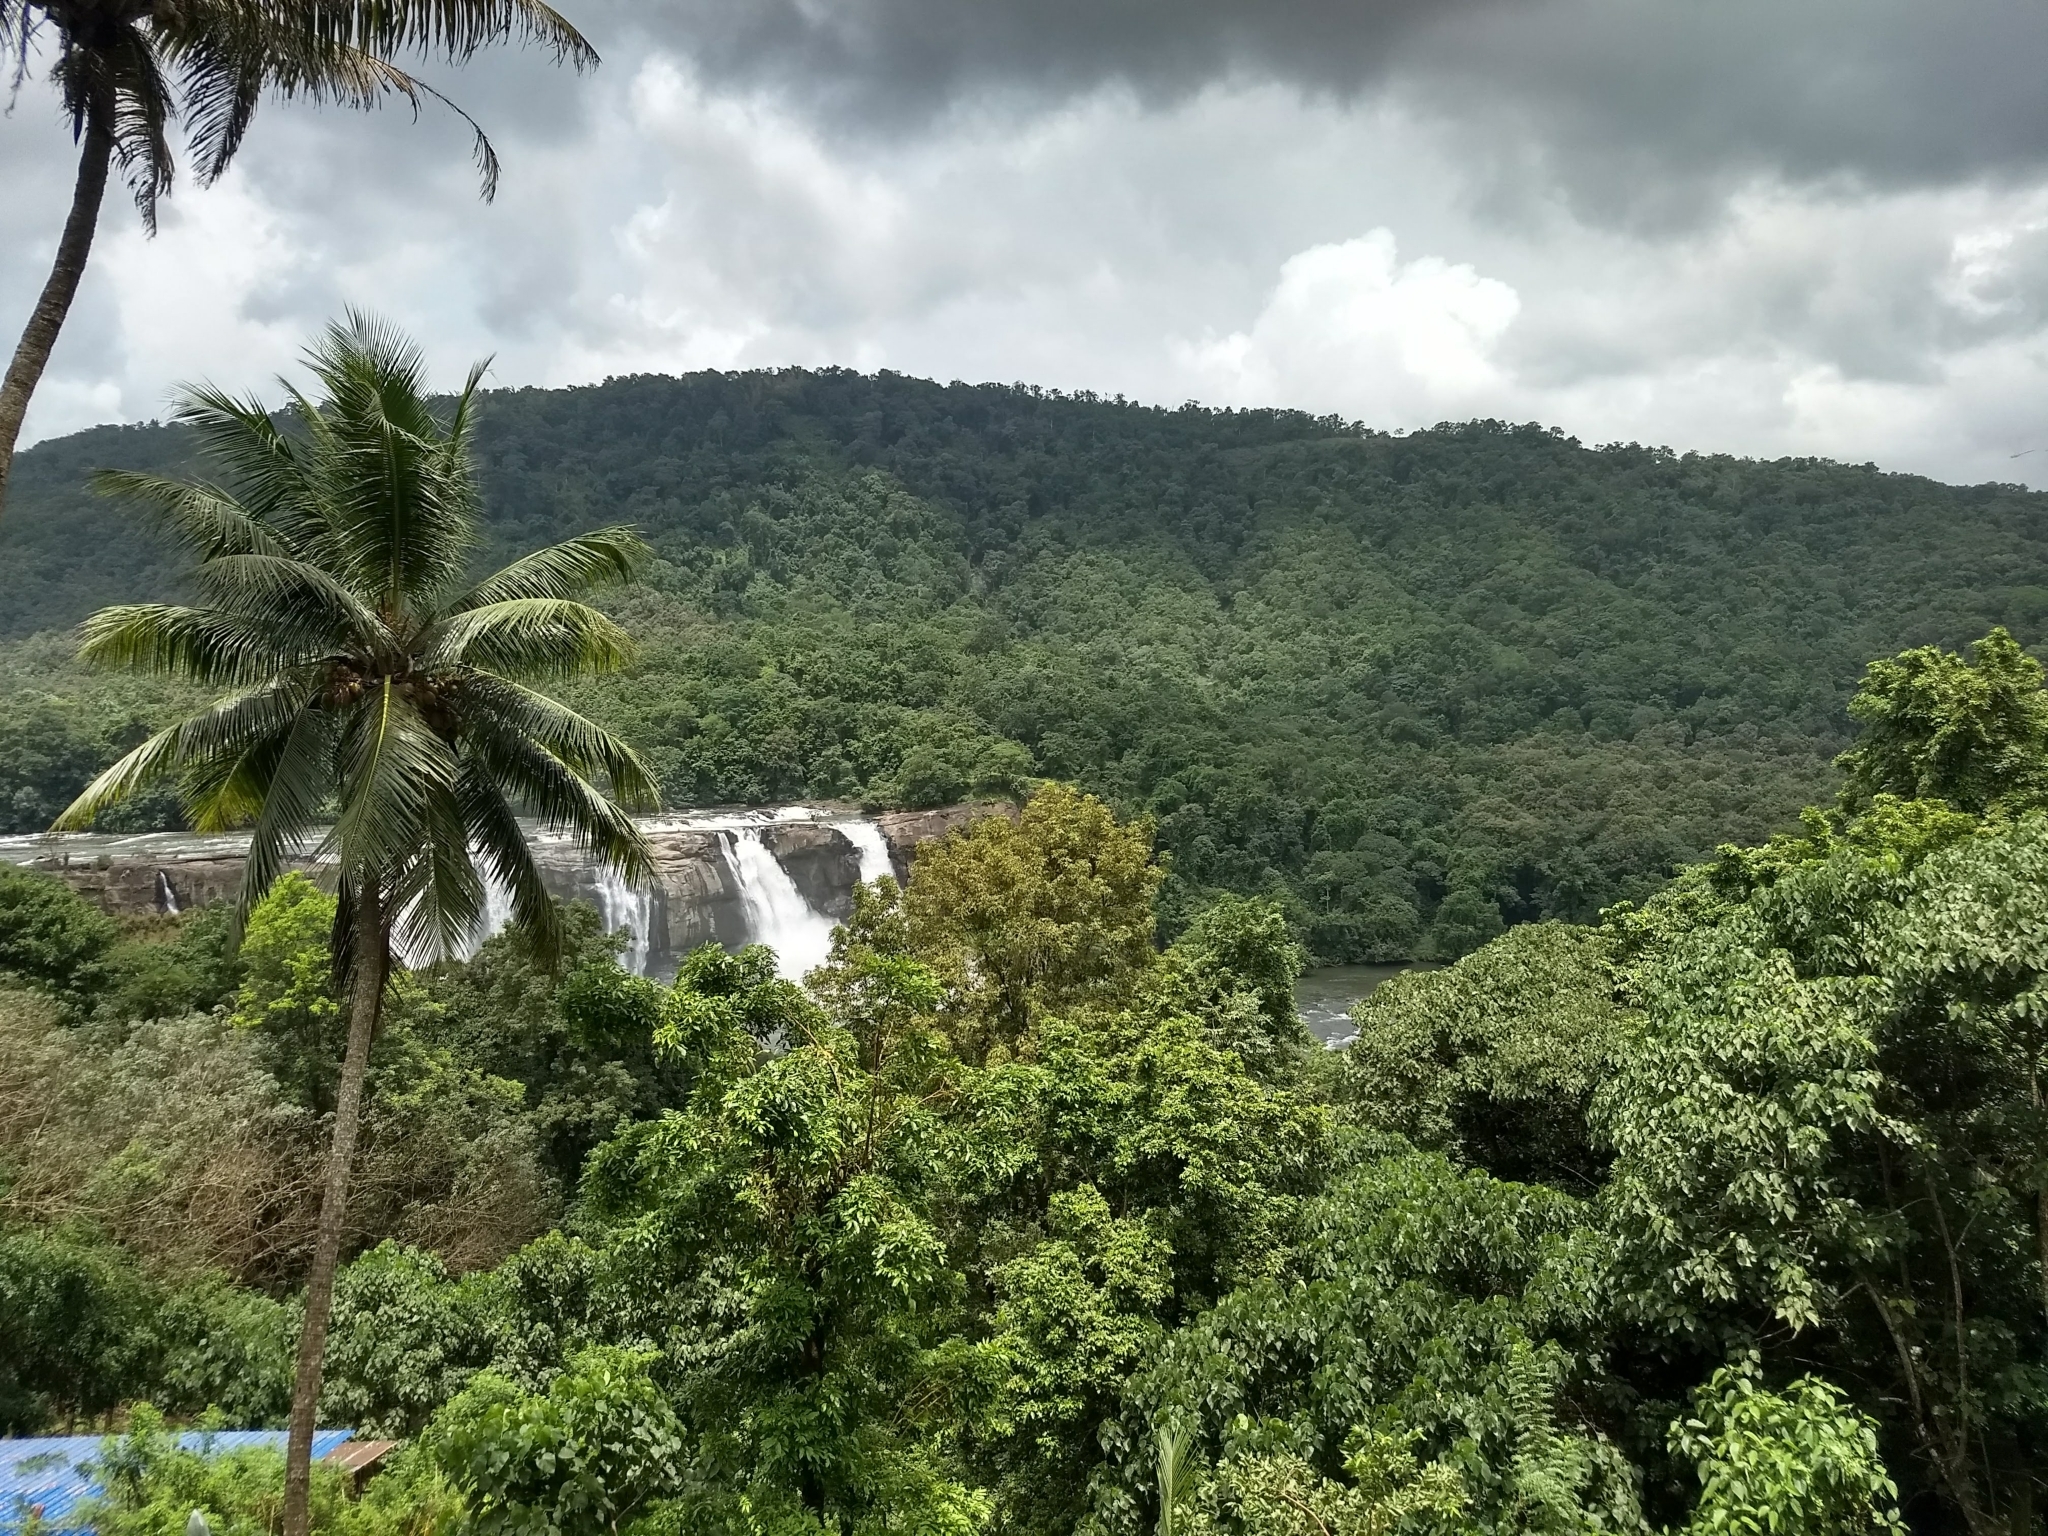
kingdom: Plantae
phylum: Tracheophyta
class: Liliopsida
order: Arecales
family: Arecaceae
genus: Cocos
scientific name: Cocos nucifera
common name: Coconut palm
